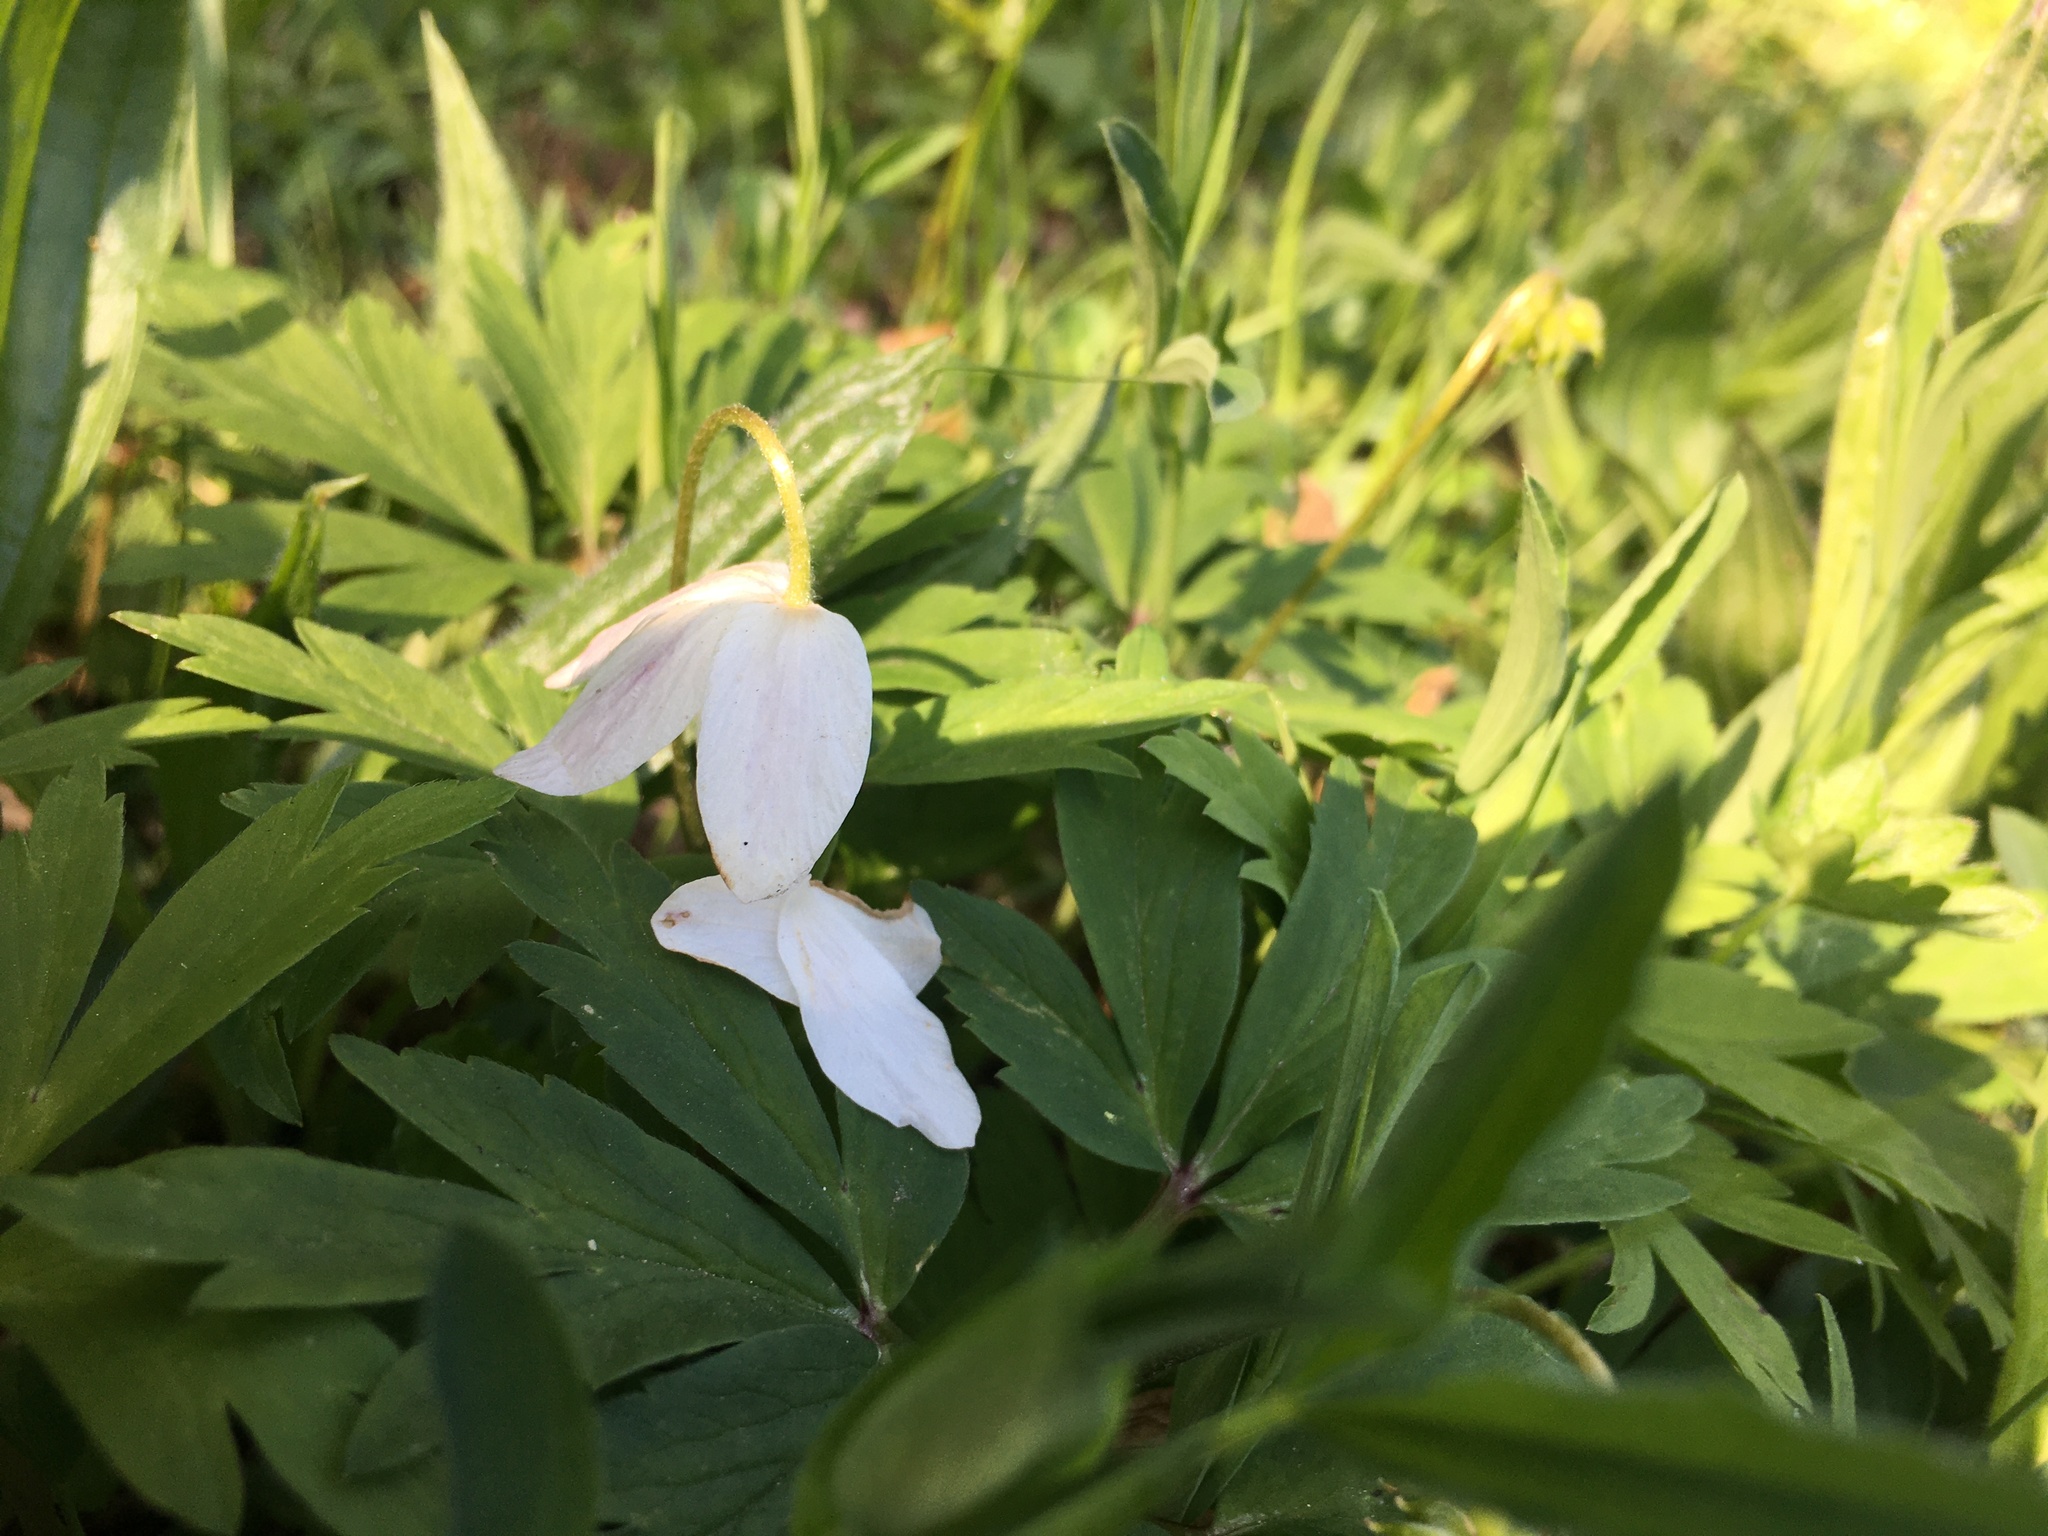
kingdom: Plantae
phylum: Tracheophyta
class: Magnoliopsida
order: Ranunculales
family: Ranunculaceae
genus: Anemone
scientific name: Anemone nemorosa
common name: Wood anemone
